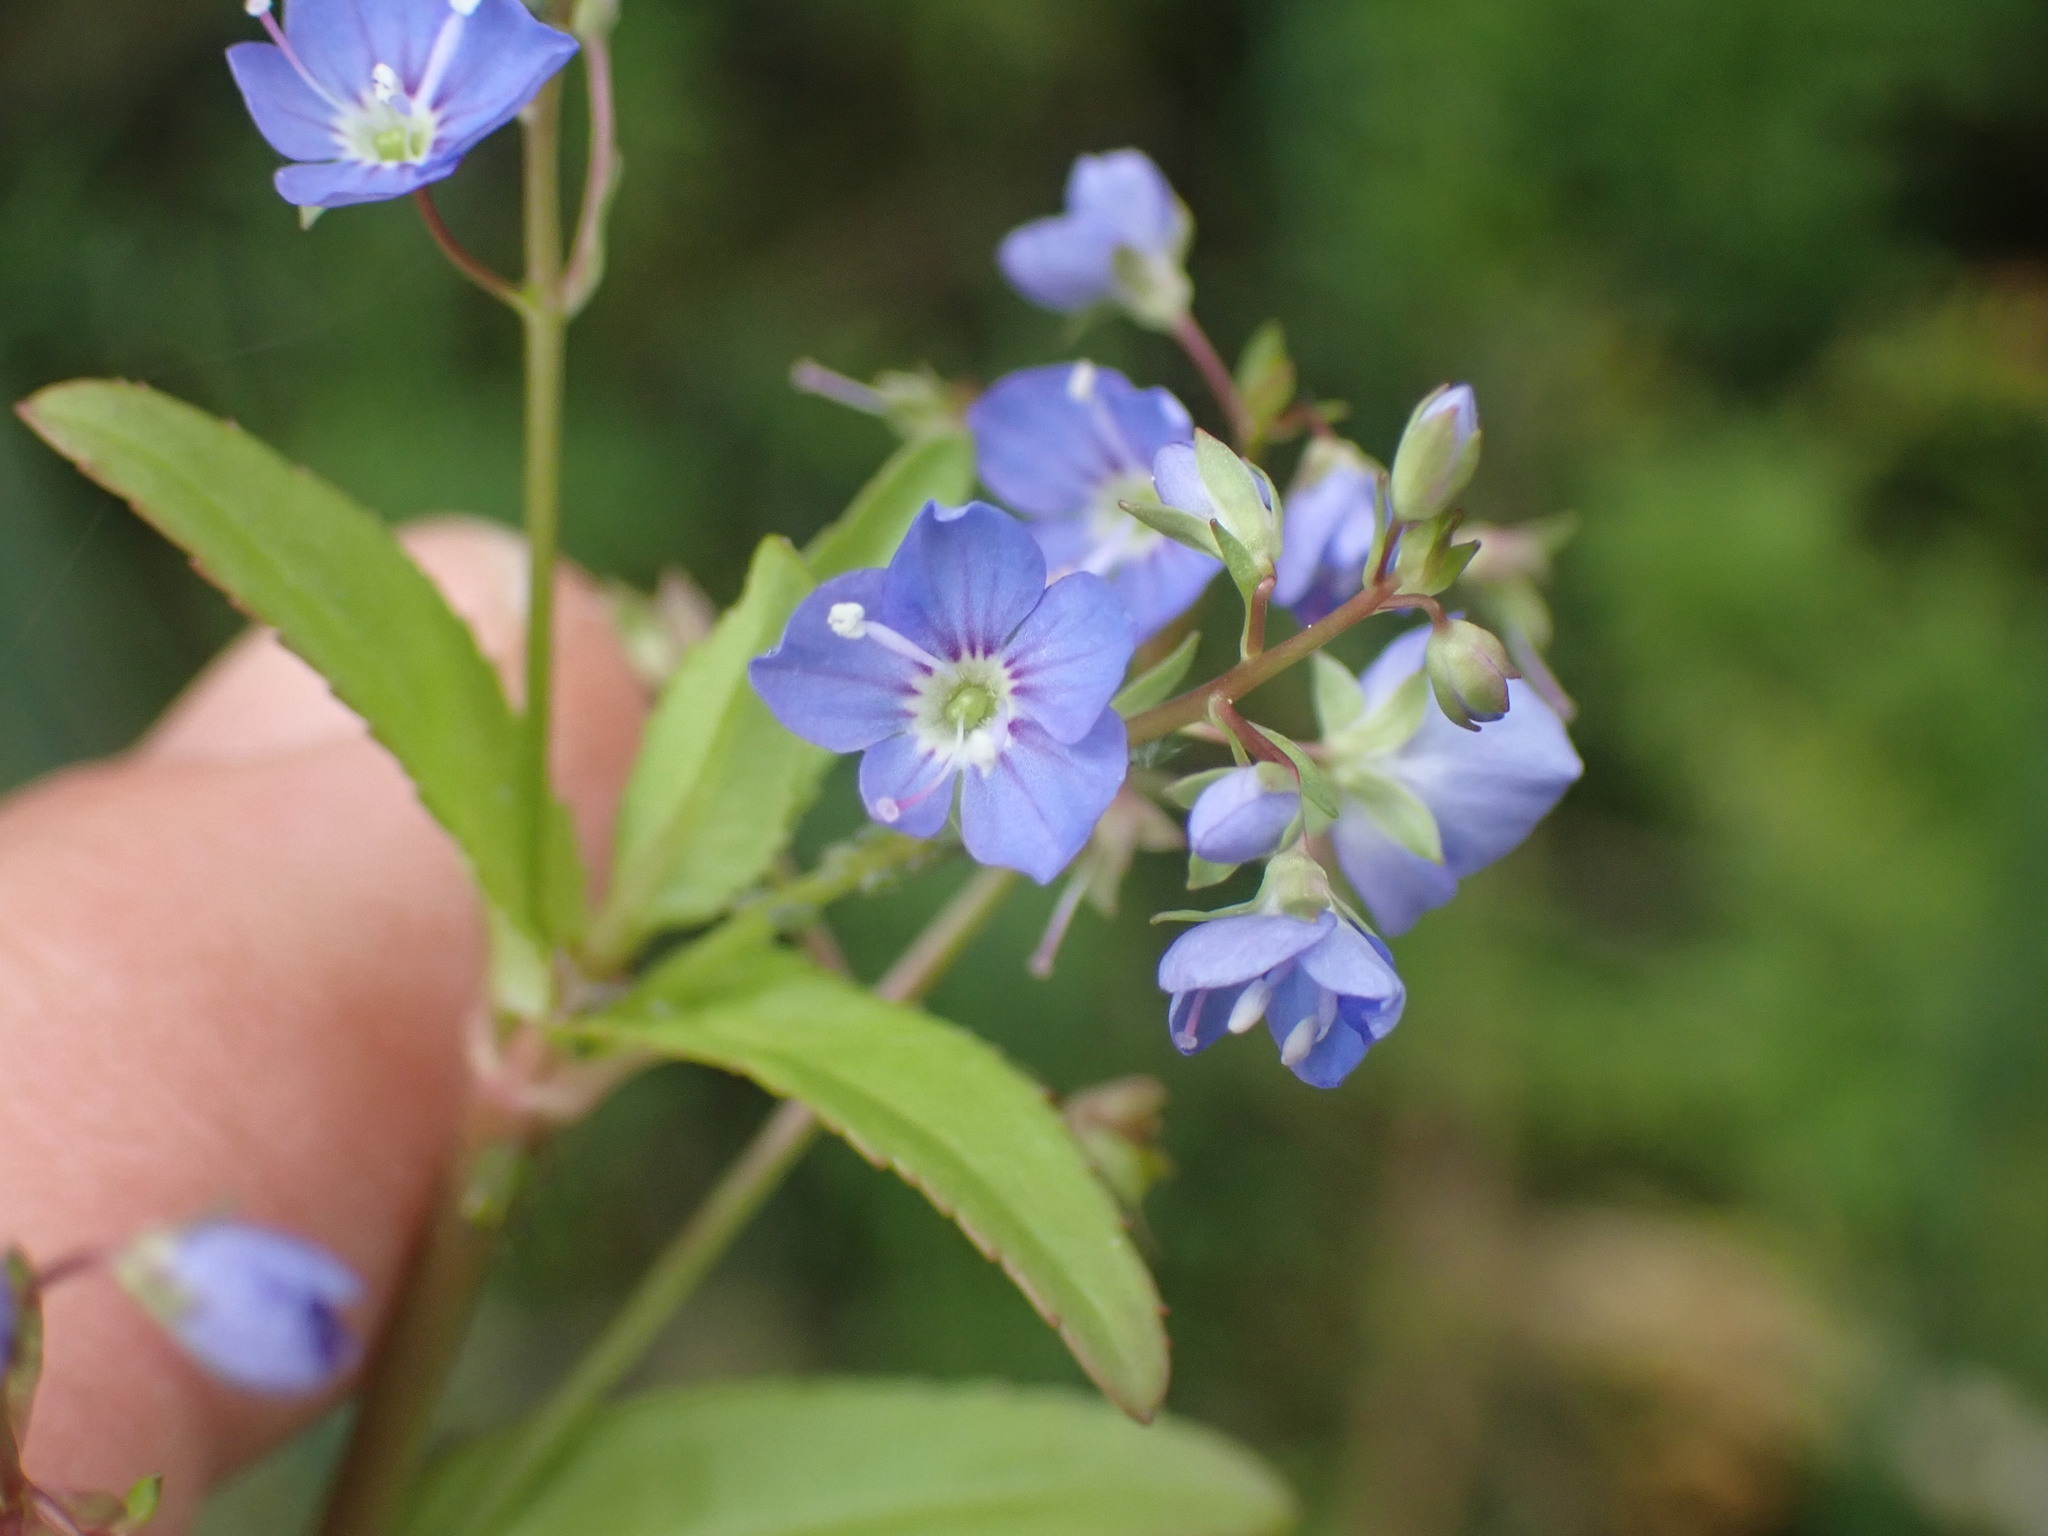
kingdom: Plantae
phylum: Tracheophyta
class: Magnoliopsida
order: Lamiales
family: Plantaginaceae
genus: Veronica
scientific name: Veronica americana
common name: American brooklime
